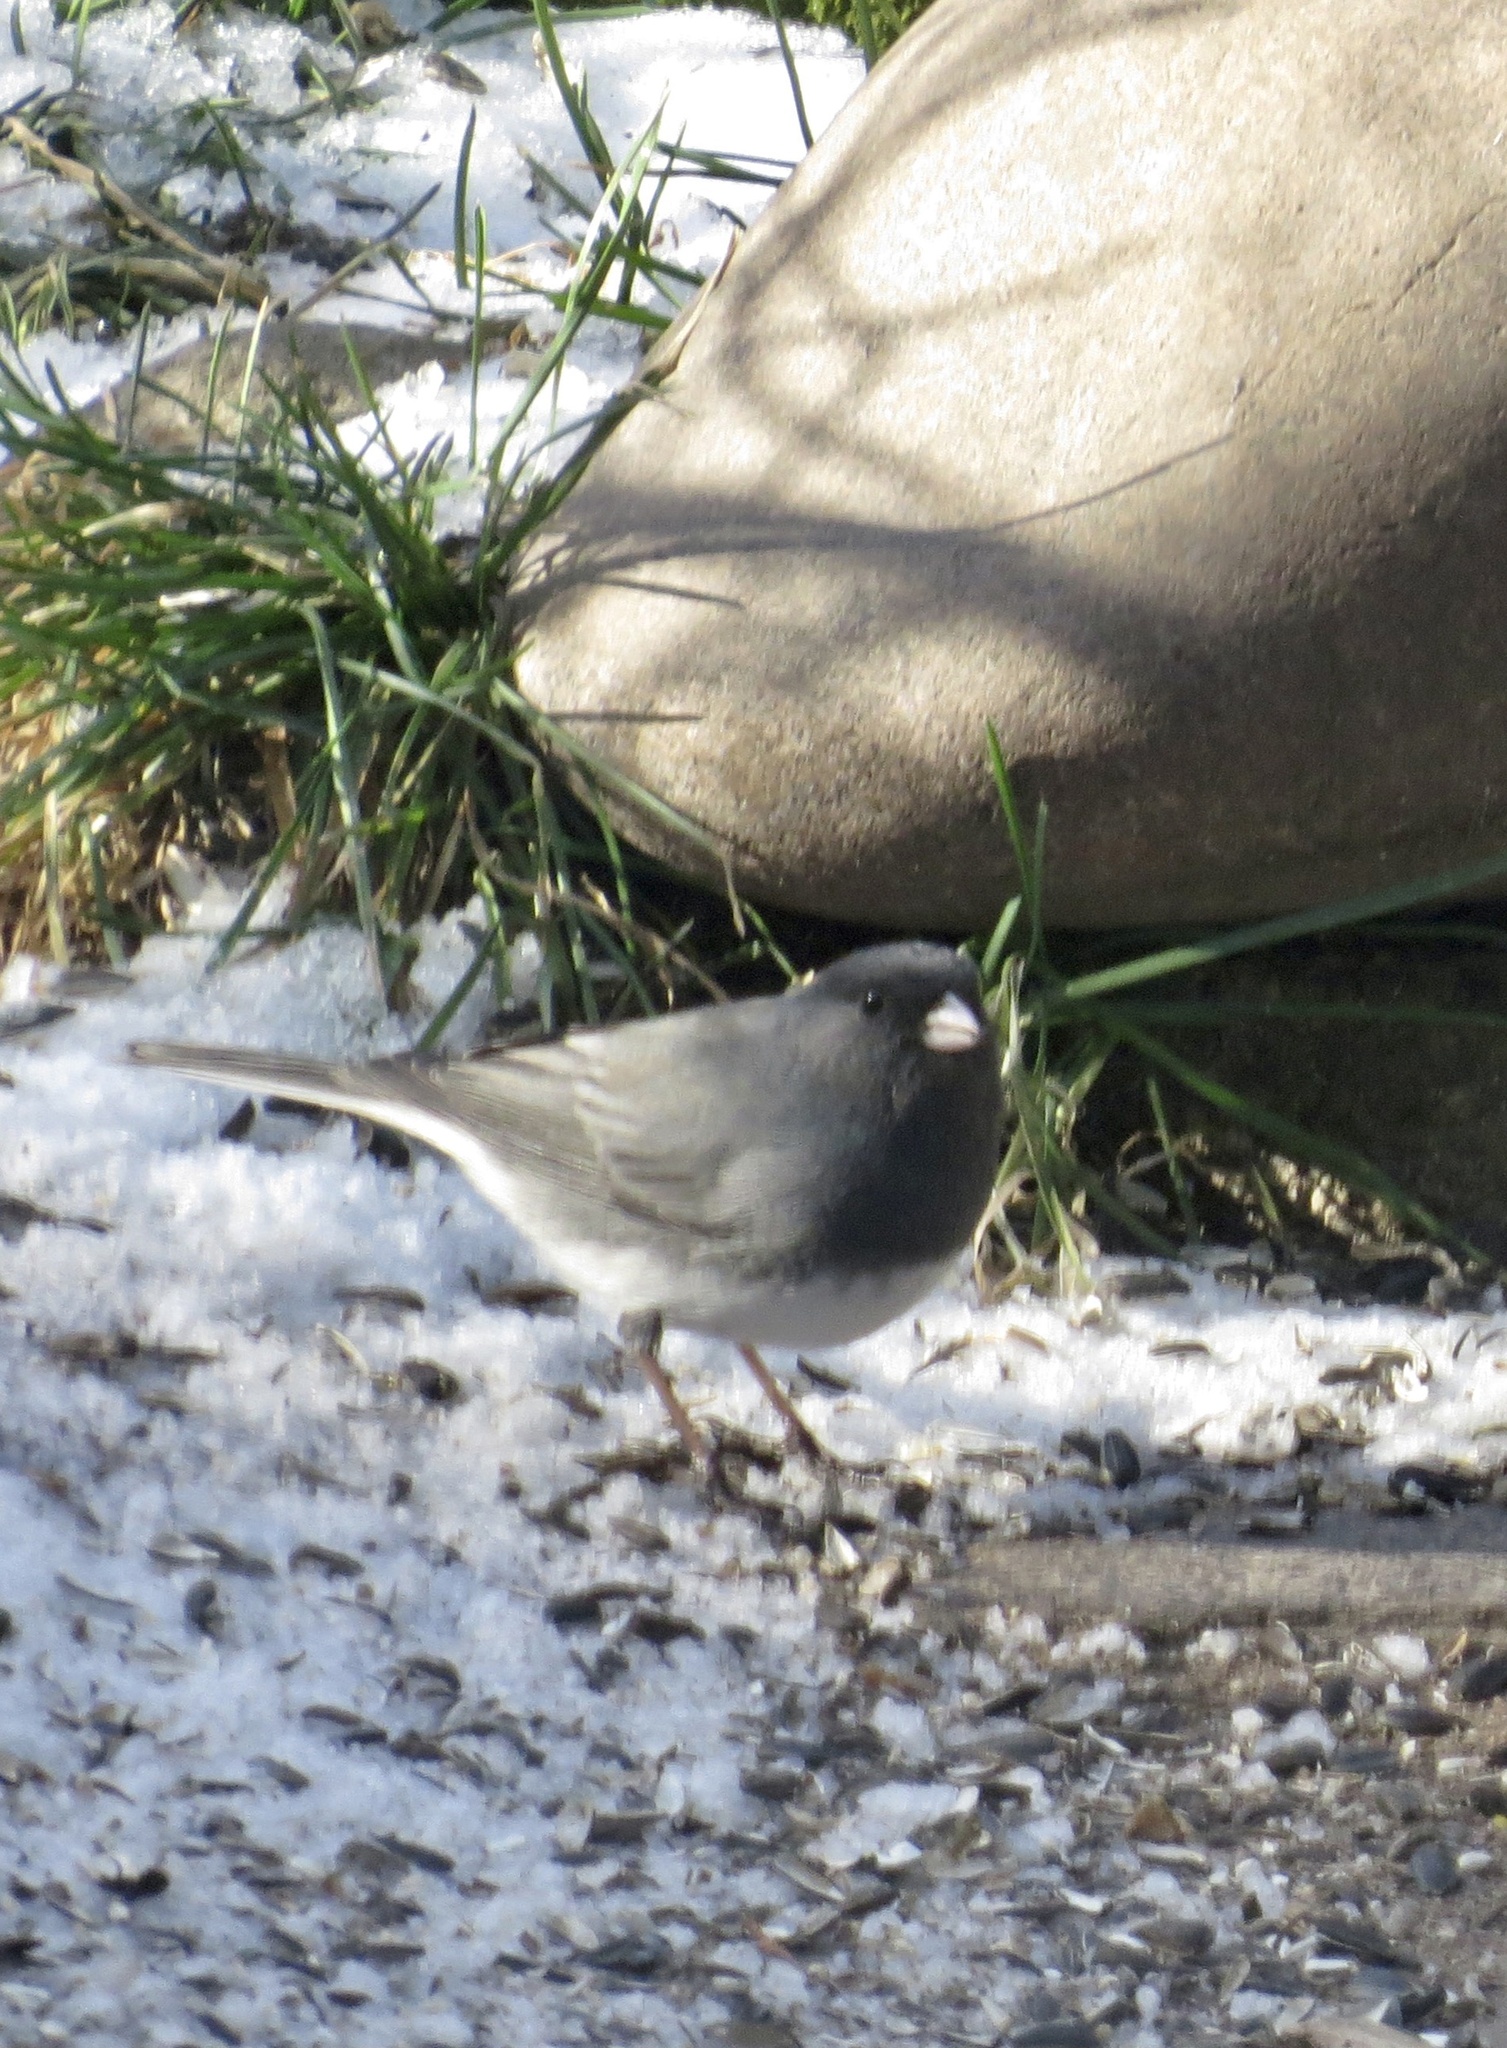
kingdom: Animalia
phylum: Chordata
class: Aves
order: Passeriformes
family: Passerellidae
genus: Junco
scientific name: Junco hyemalis
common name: Dark-eyed junco
